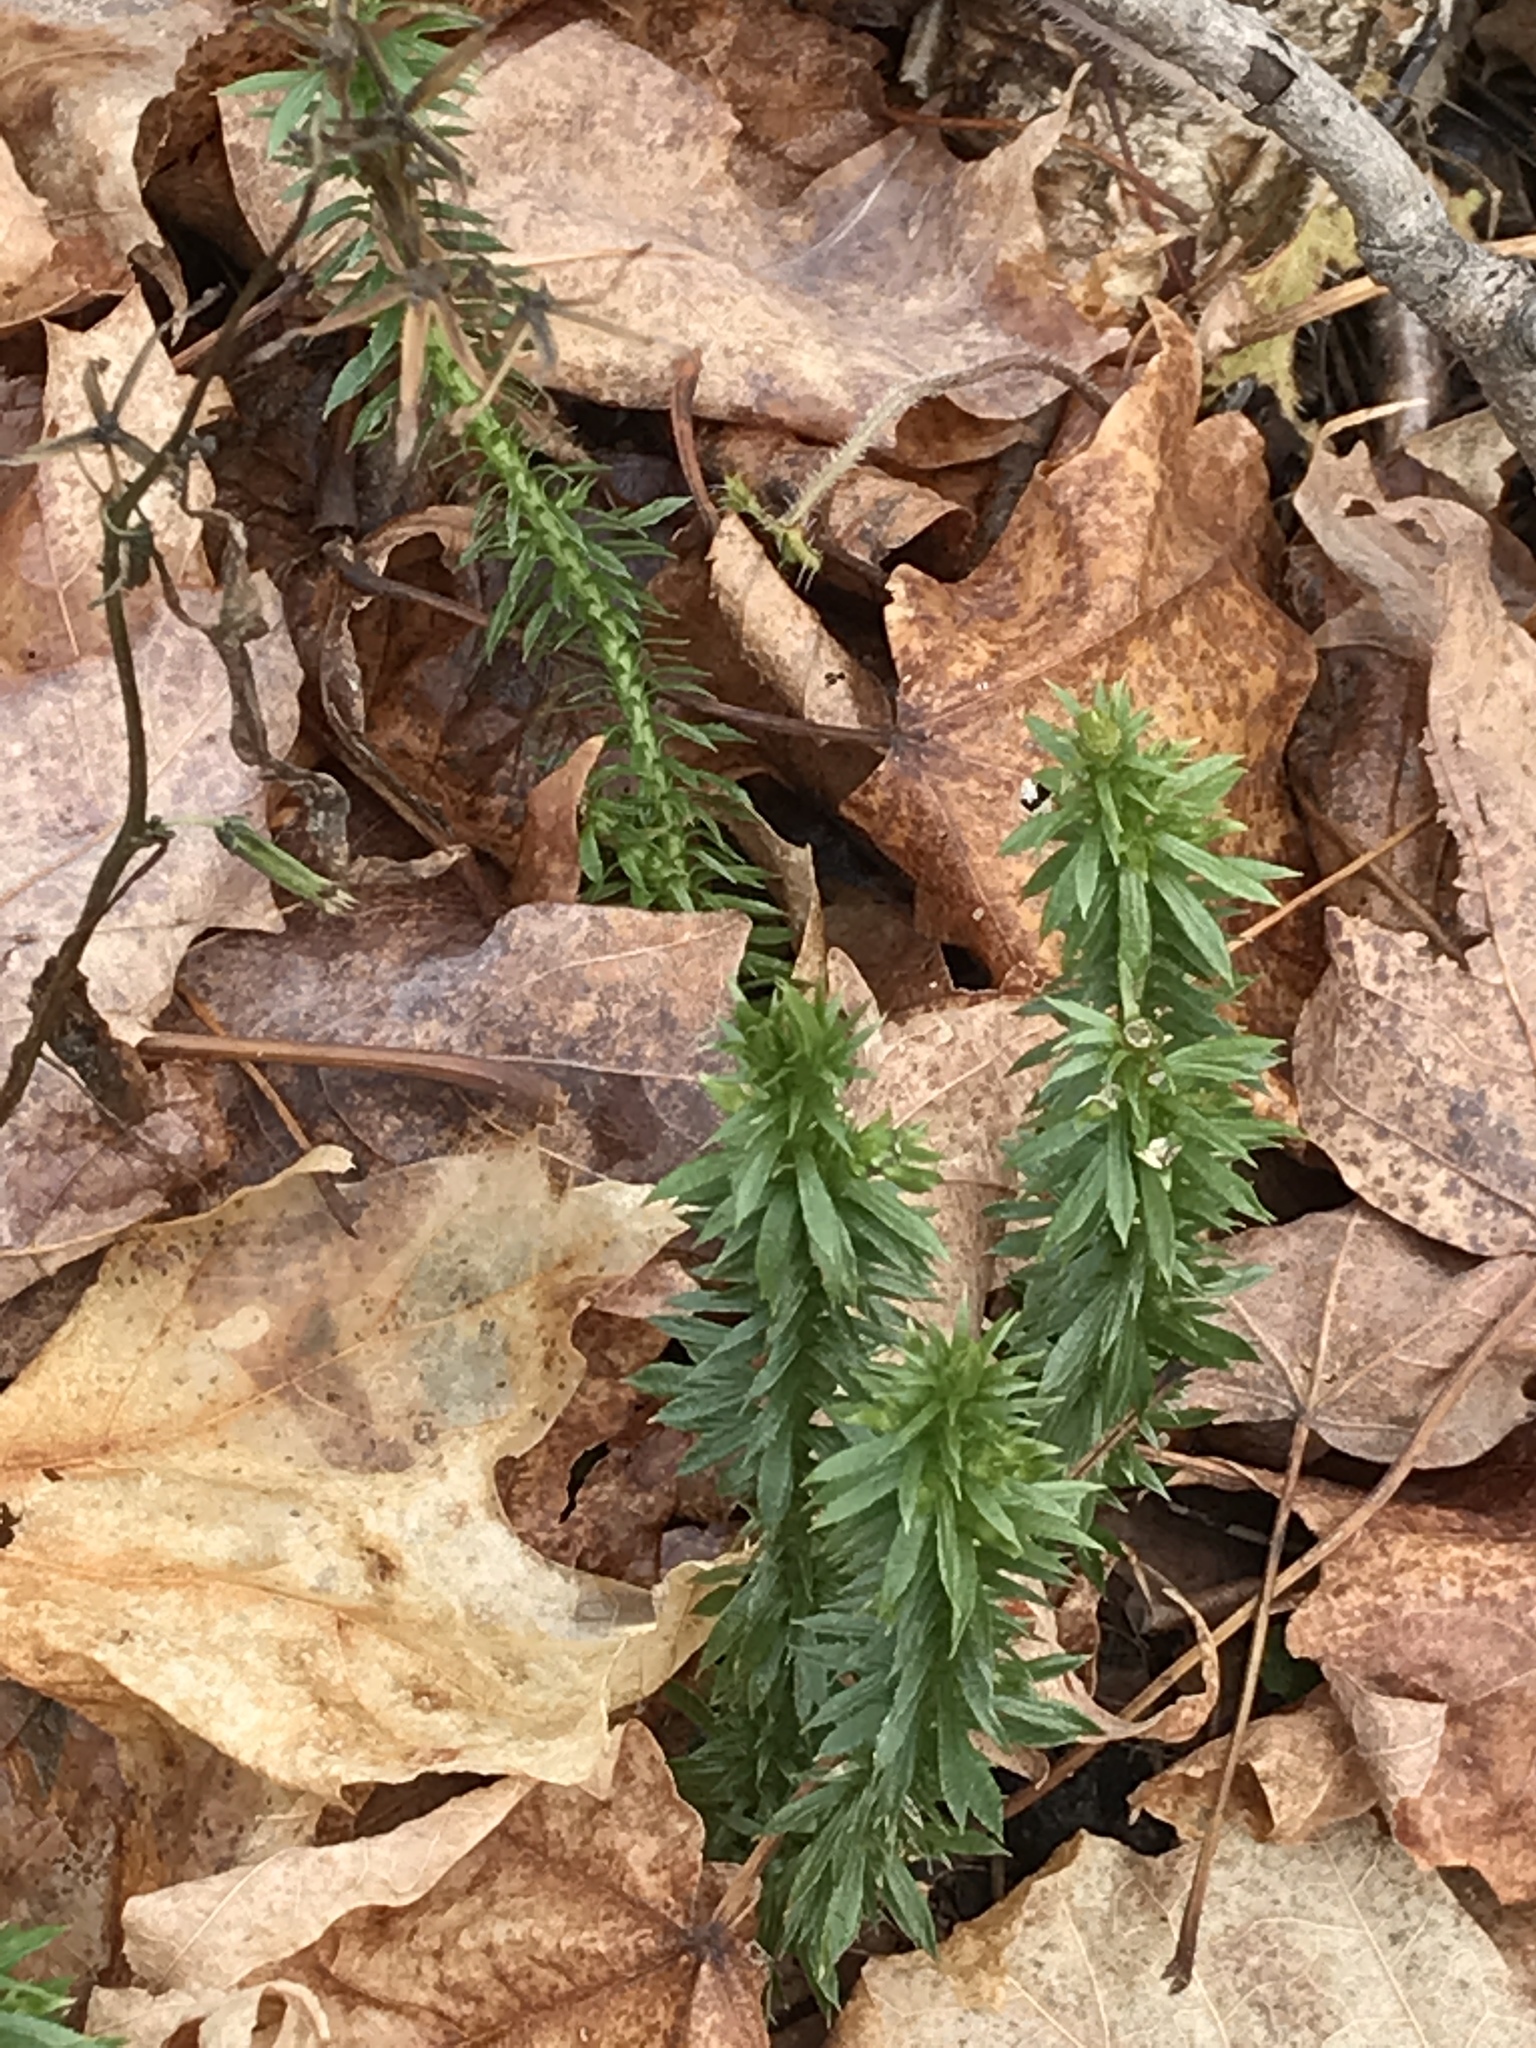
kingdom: Plantae
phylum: Tracheophyta
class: Lycopodiopsida
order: Lycopodiales
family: Lycopodiaceae
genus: Huperzia
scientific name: Huperzia lucidula
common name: Shining clubmoss
